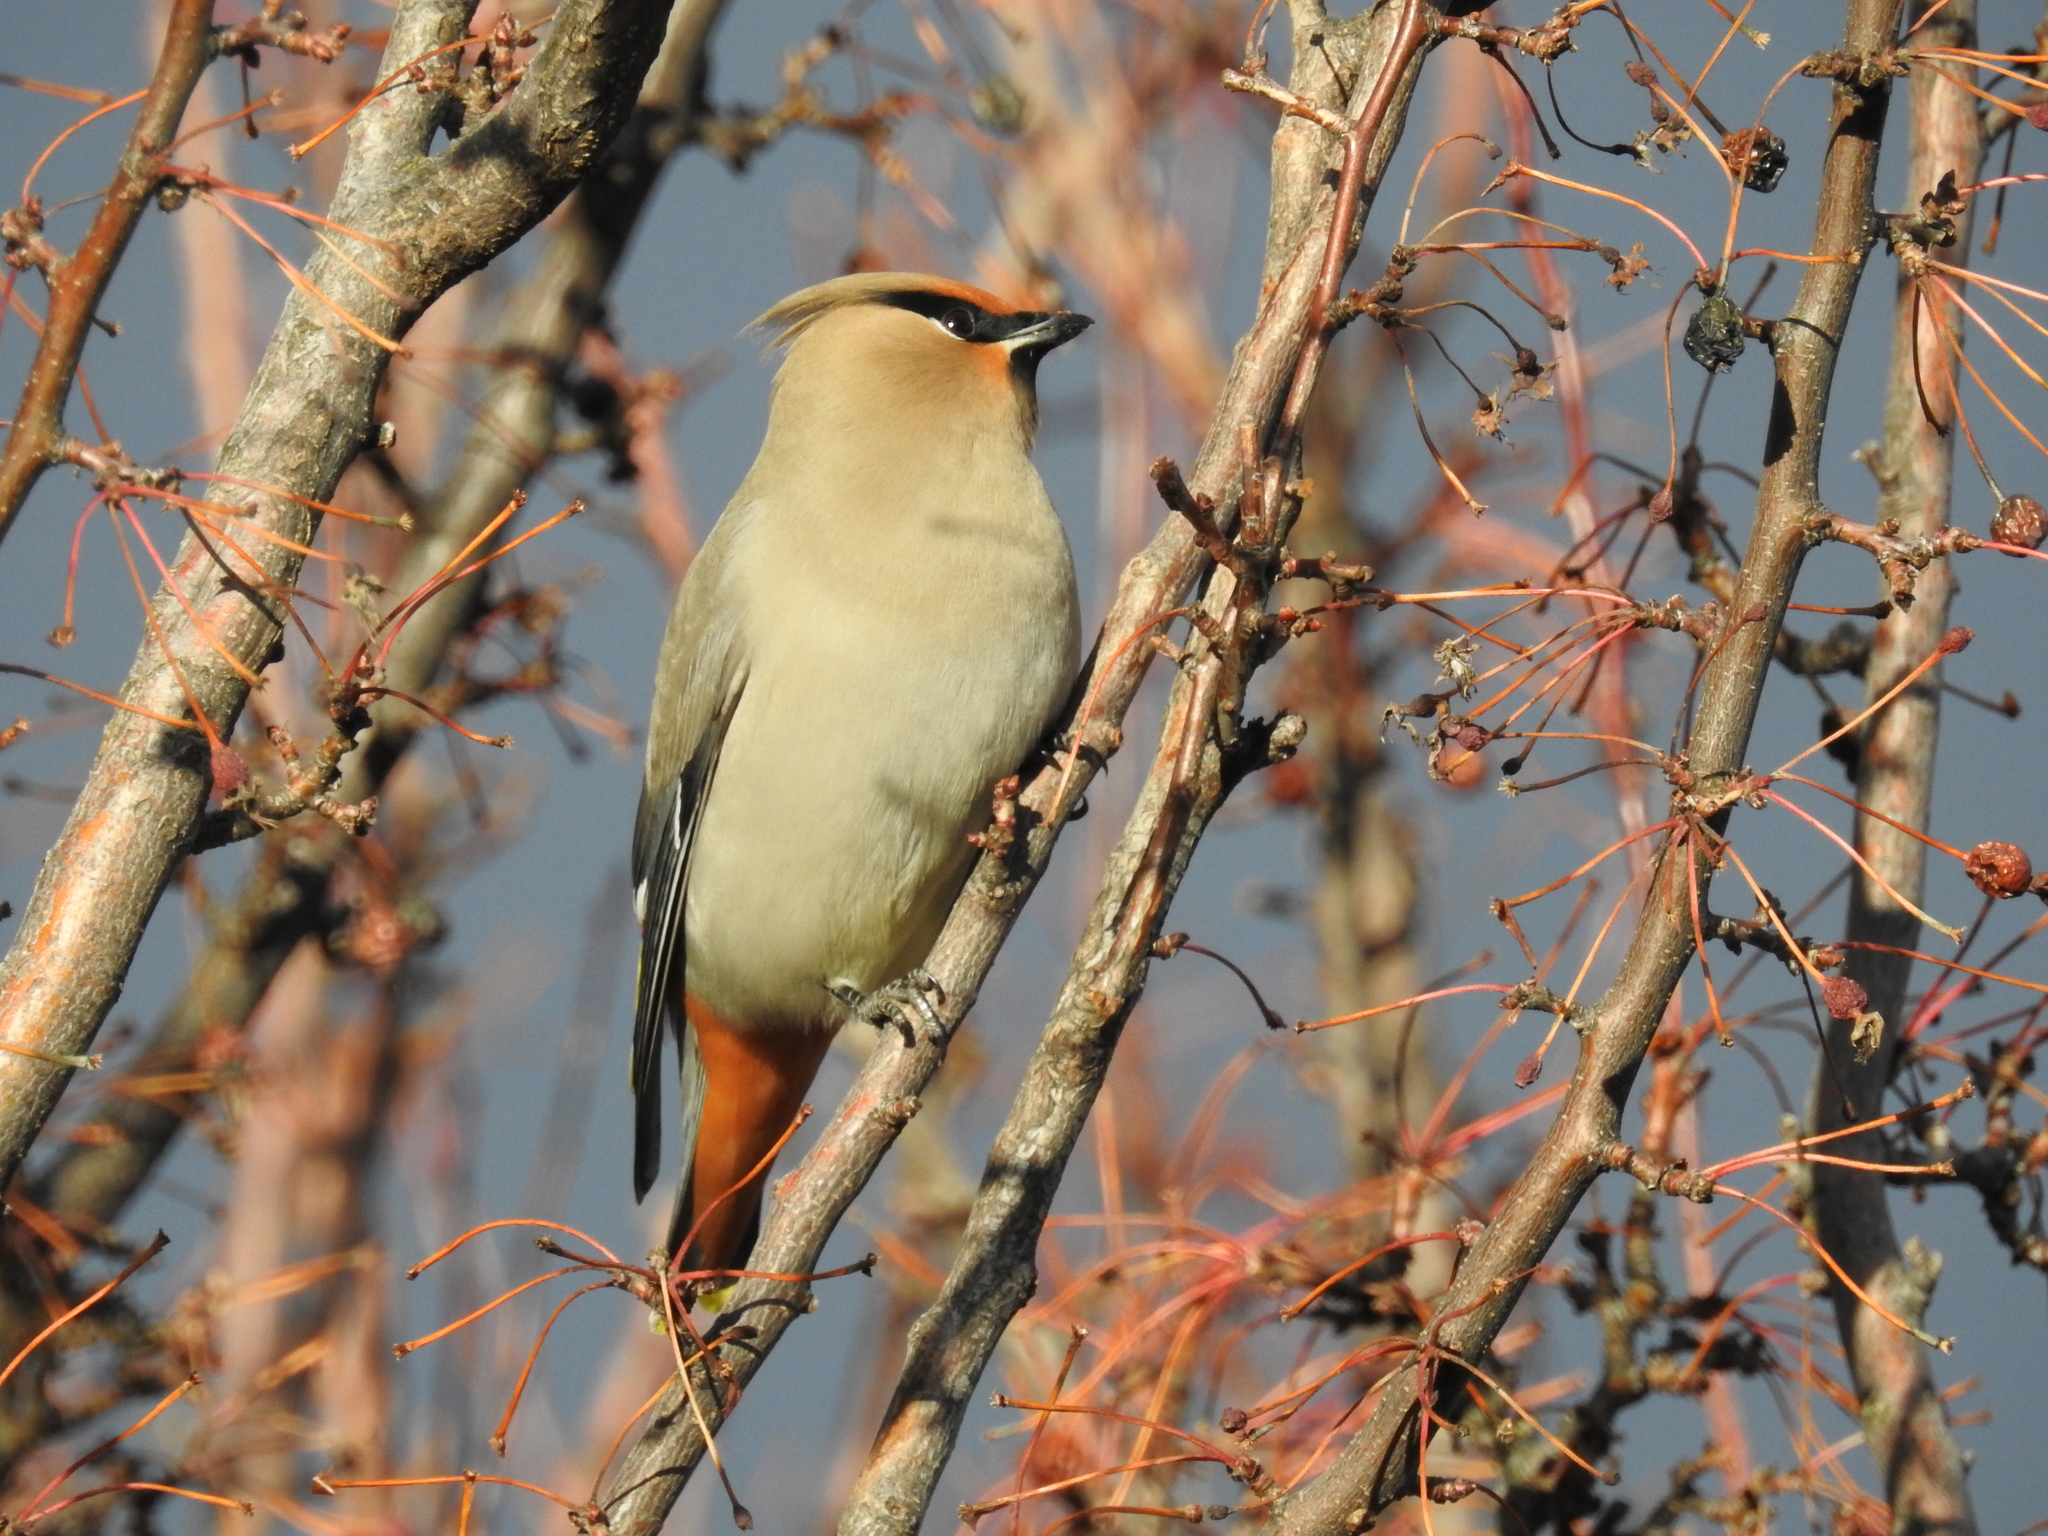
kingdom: Animalia
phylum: Chordata
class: Aves
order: Passeriformes
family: Bombycillidae
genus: Bombycilla
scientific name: Bombycilla garrulus
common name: Bohemian waxwing
